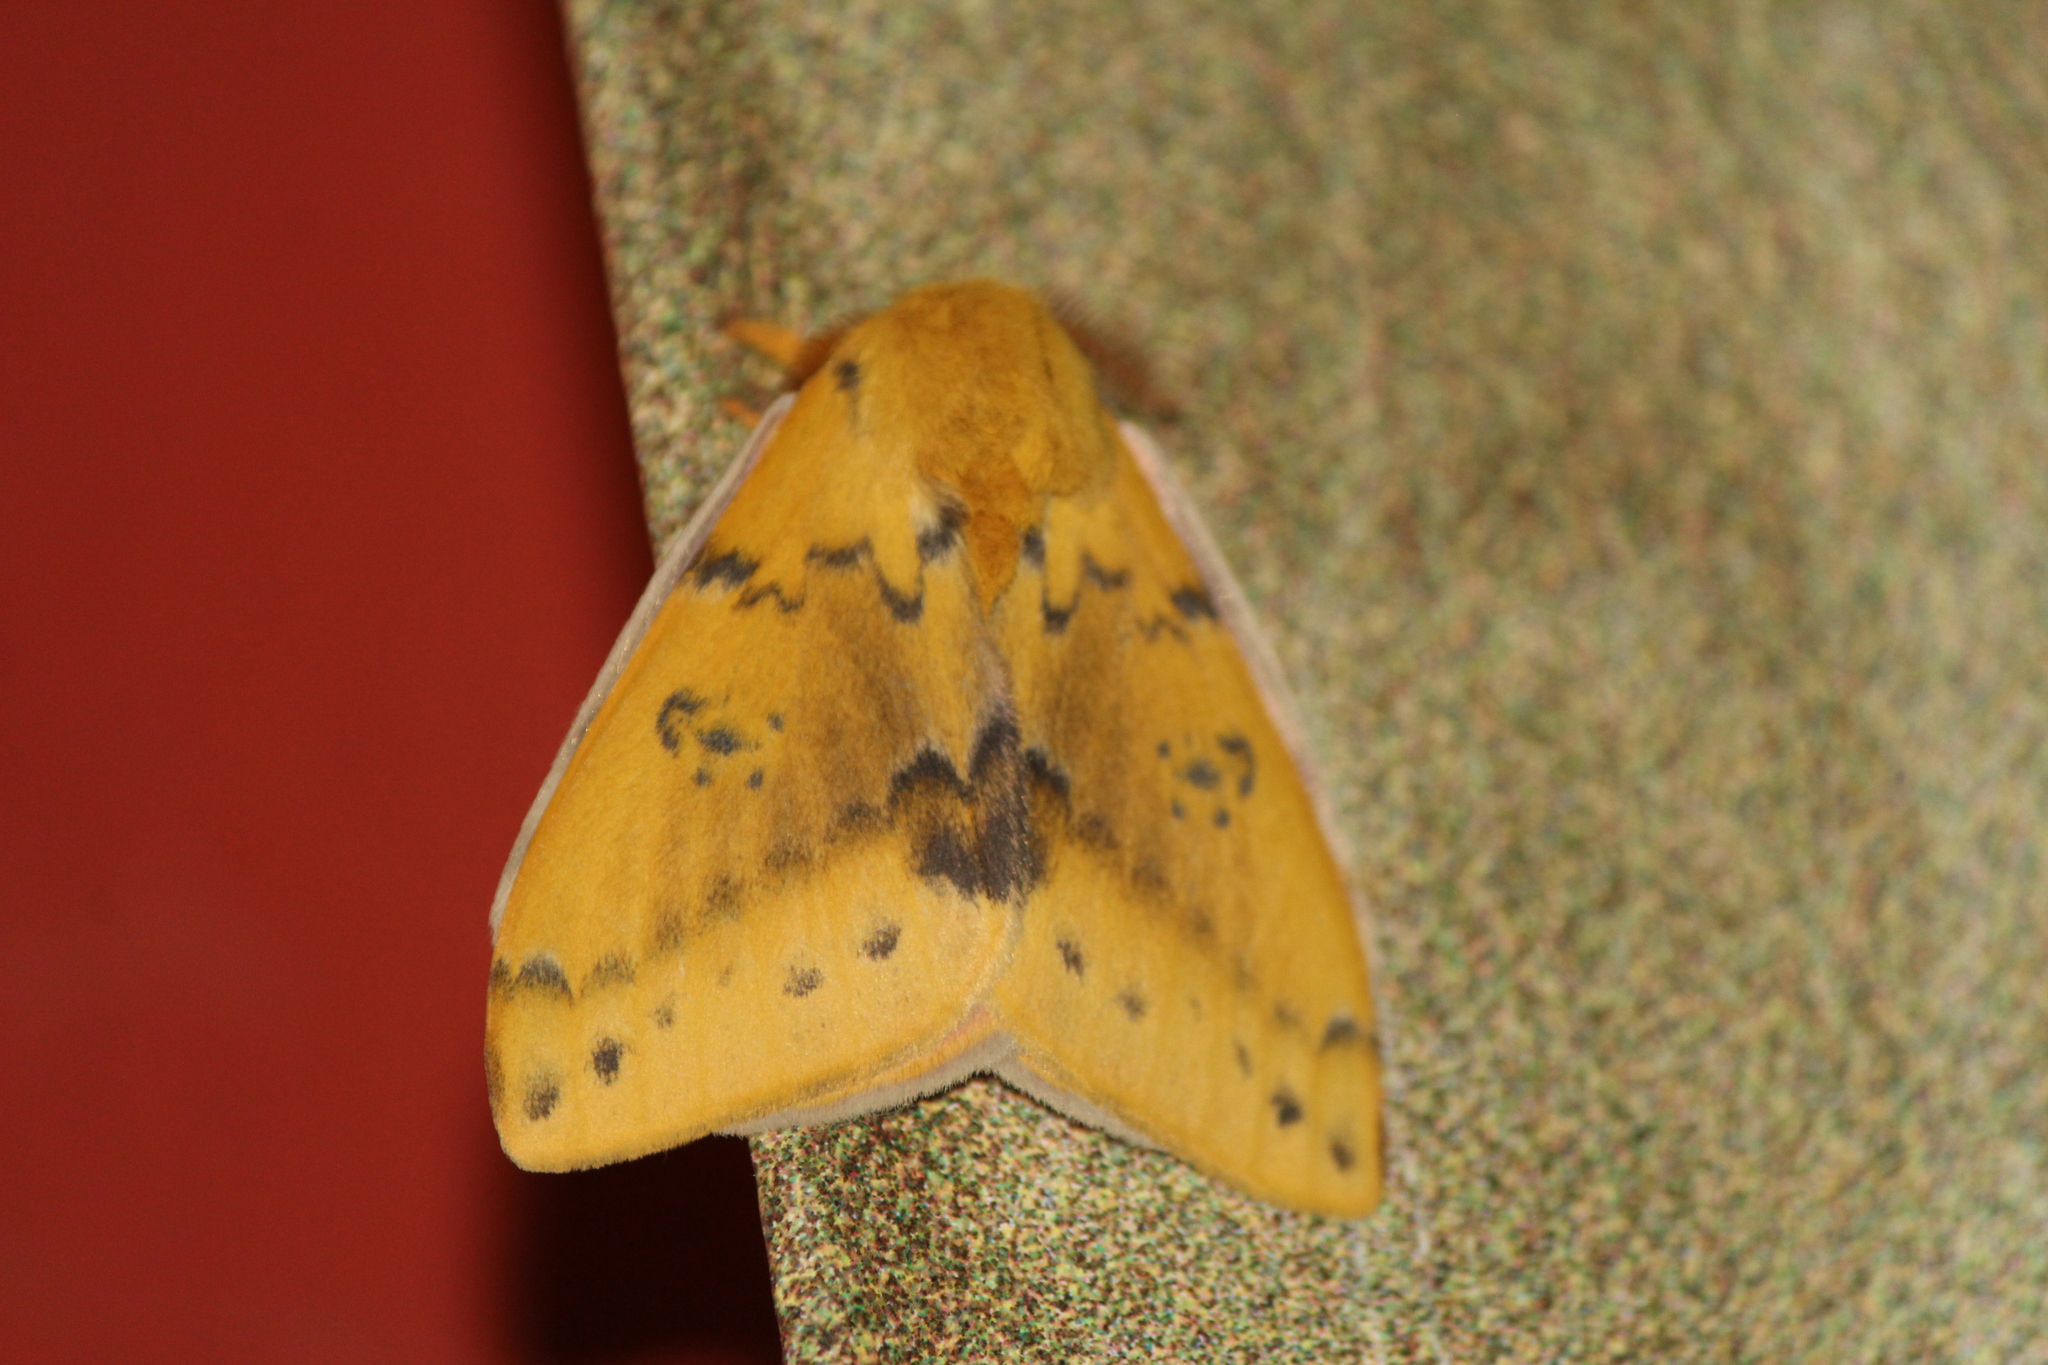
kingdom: Animalia
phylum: Arthropoda
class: Insecta
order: Lepidoptera
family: Saturniidae
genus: Automeris
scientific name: Automeris io
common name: Io moth
